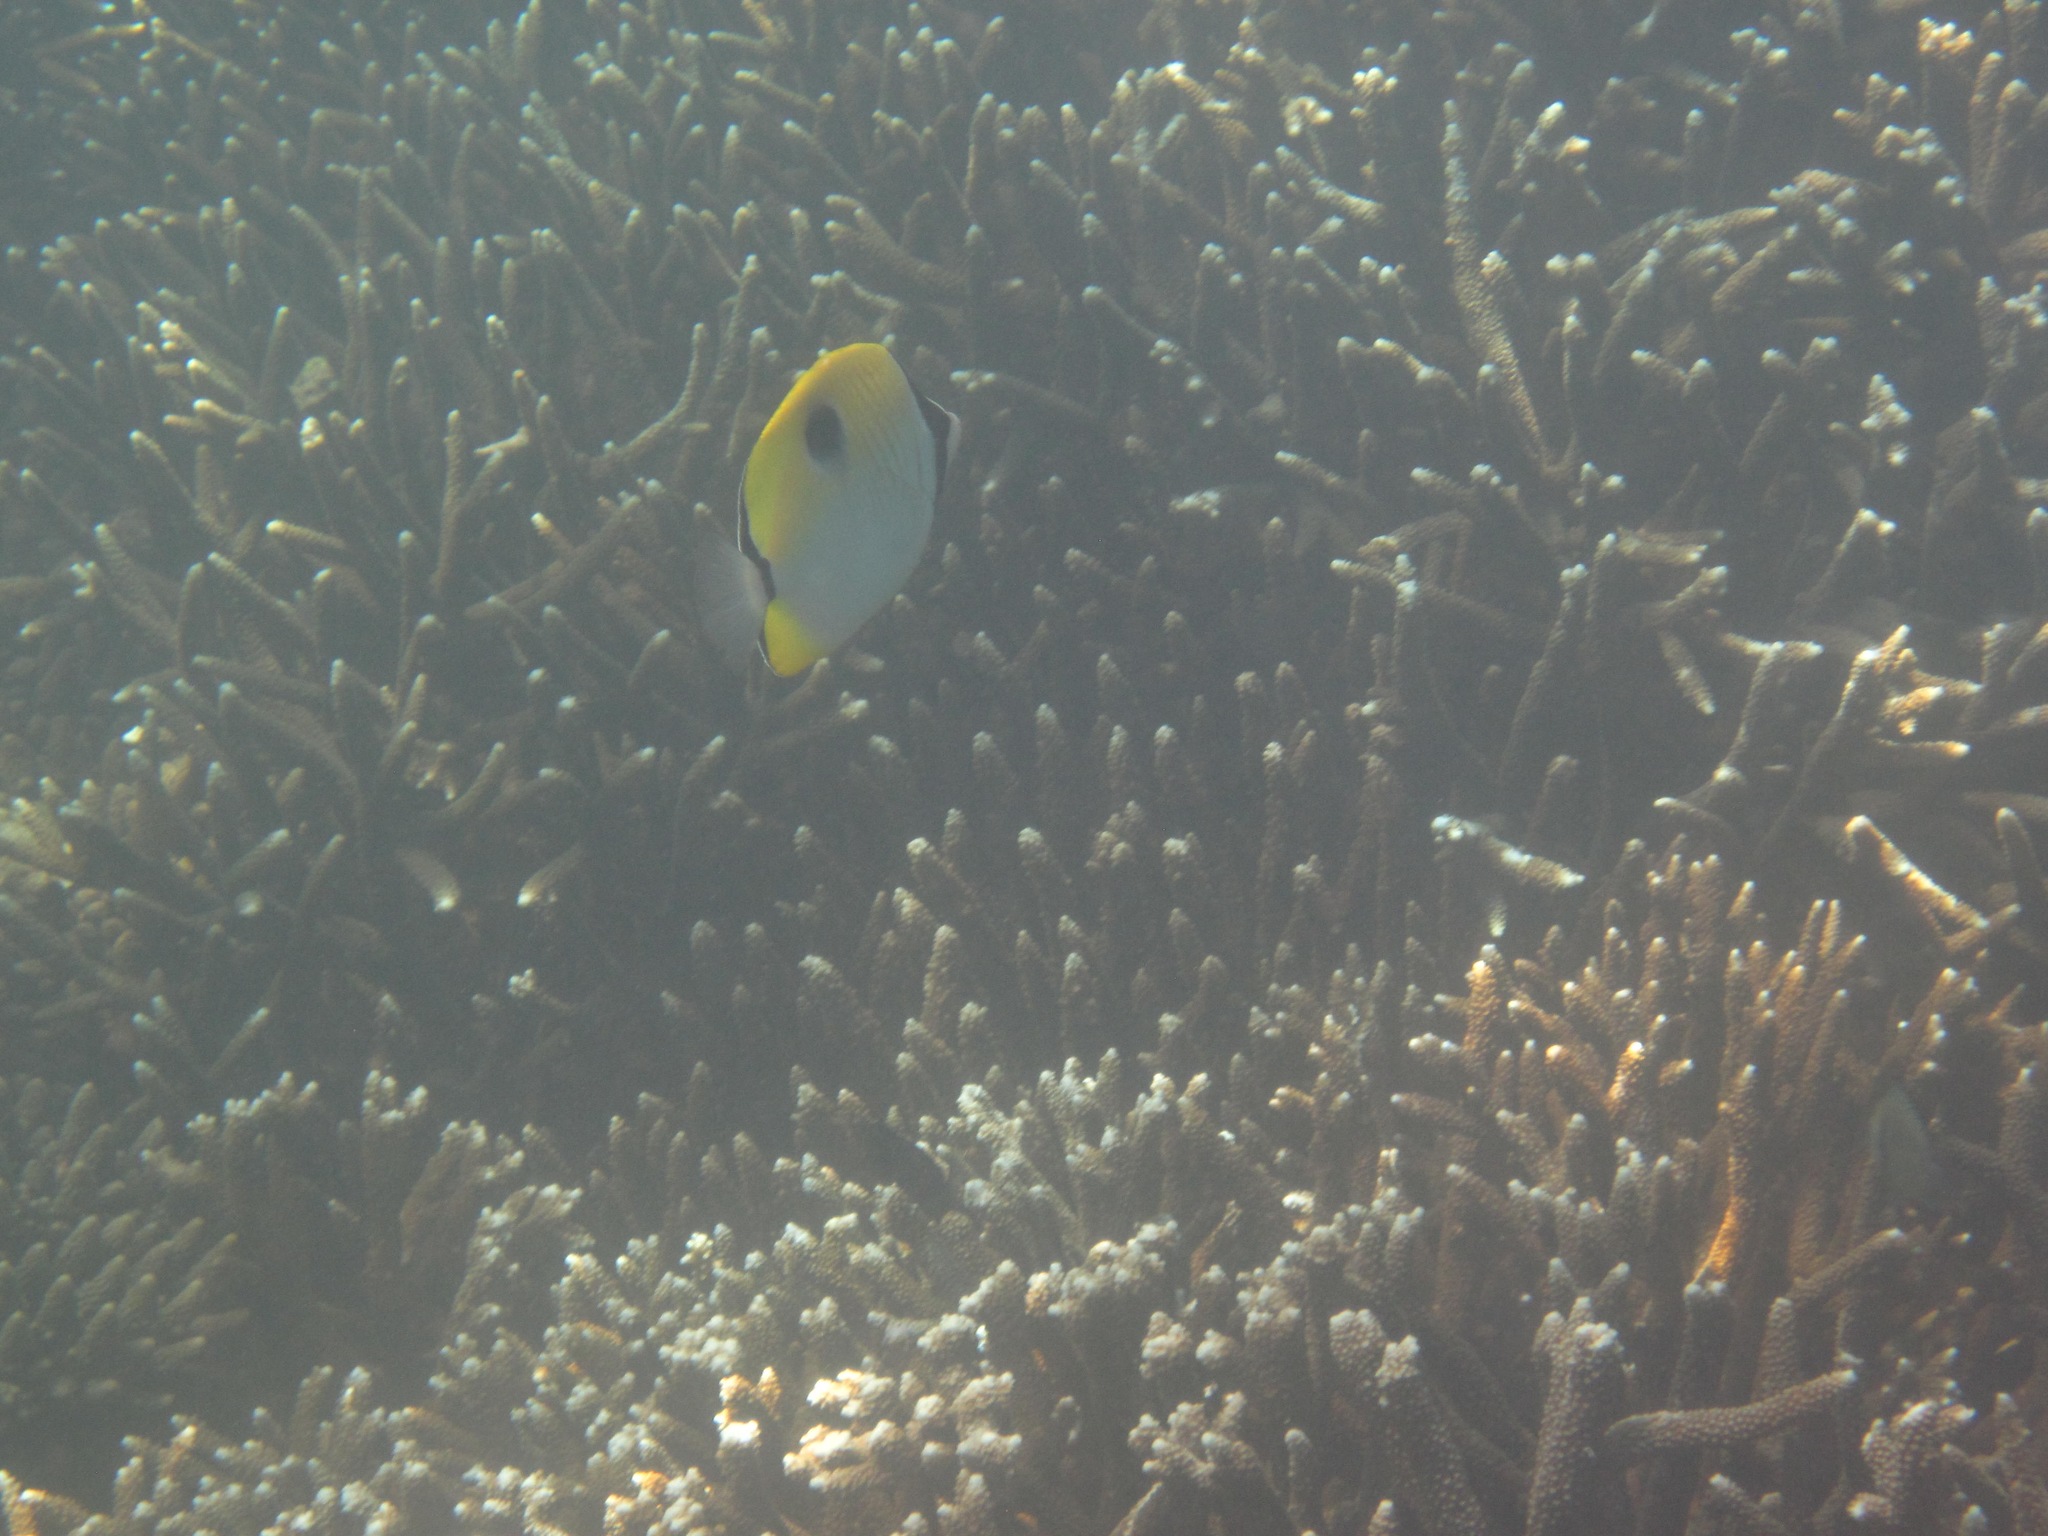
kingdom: Animalia
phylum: Chordata
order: Perciformes
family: Chaetodontidae
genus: Chaetodon
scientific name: Chaetodon unimaculatus
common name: Teardrop butterflyfish
